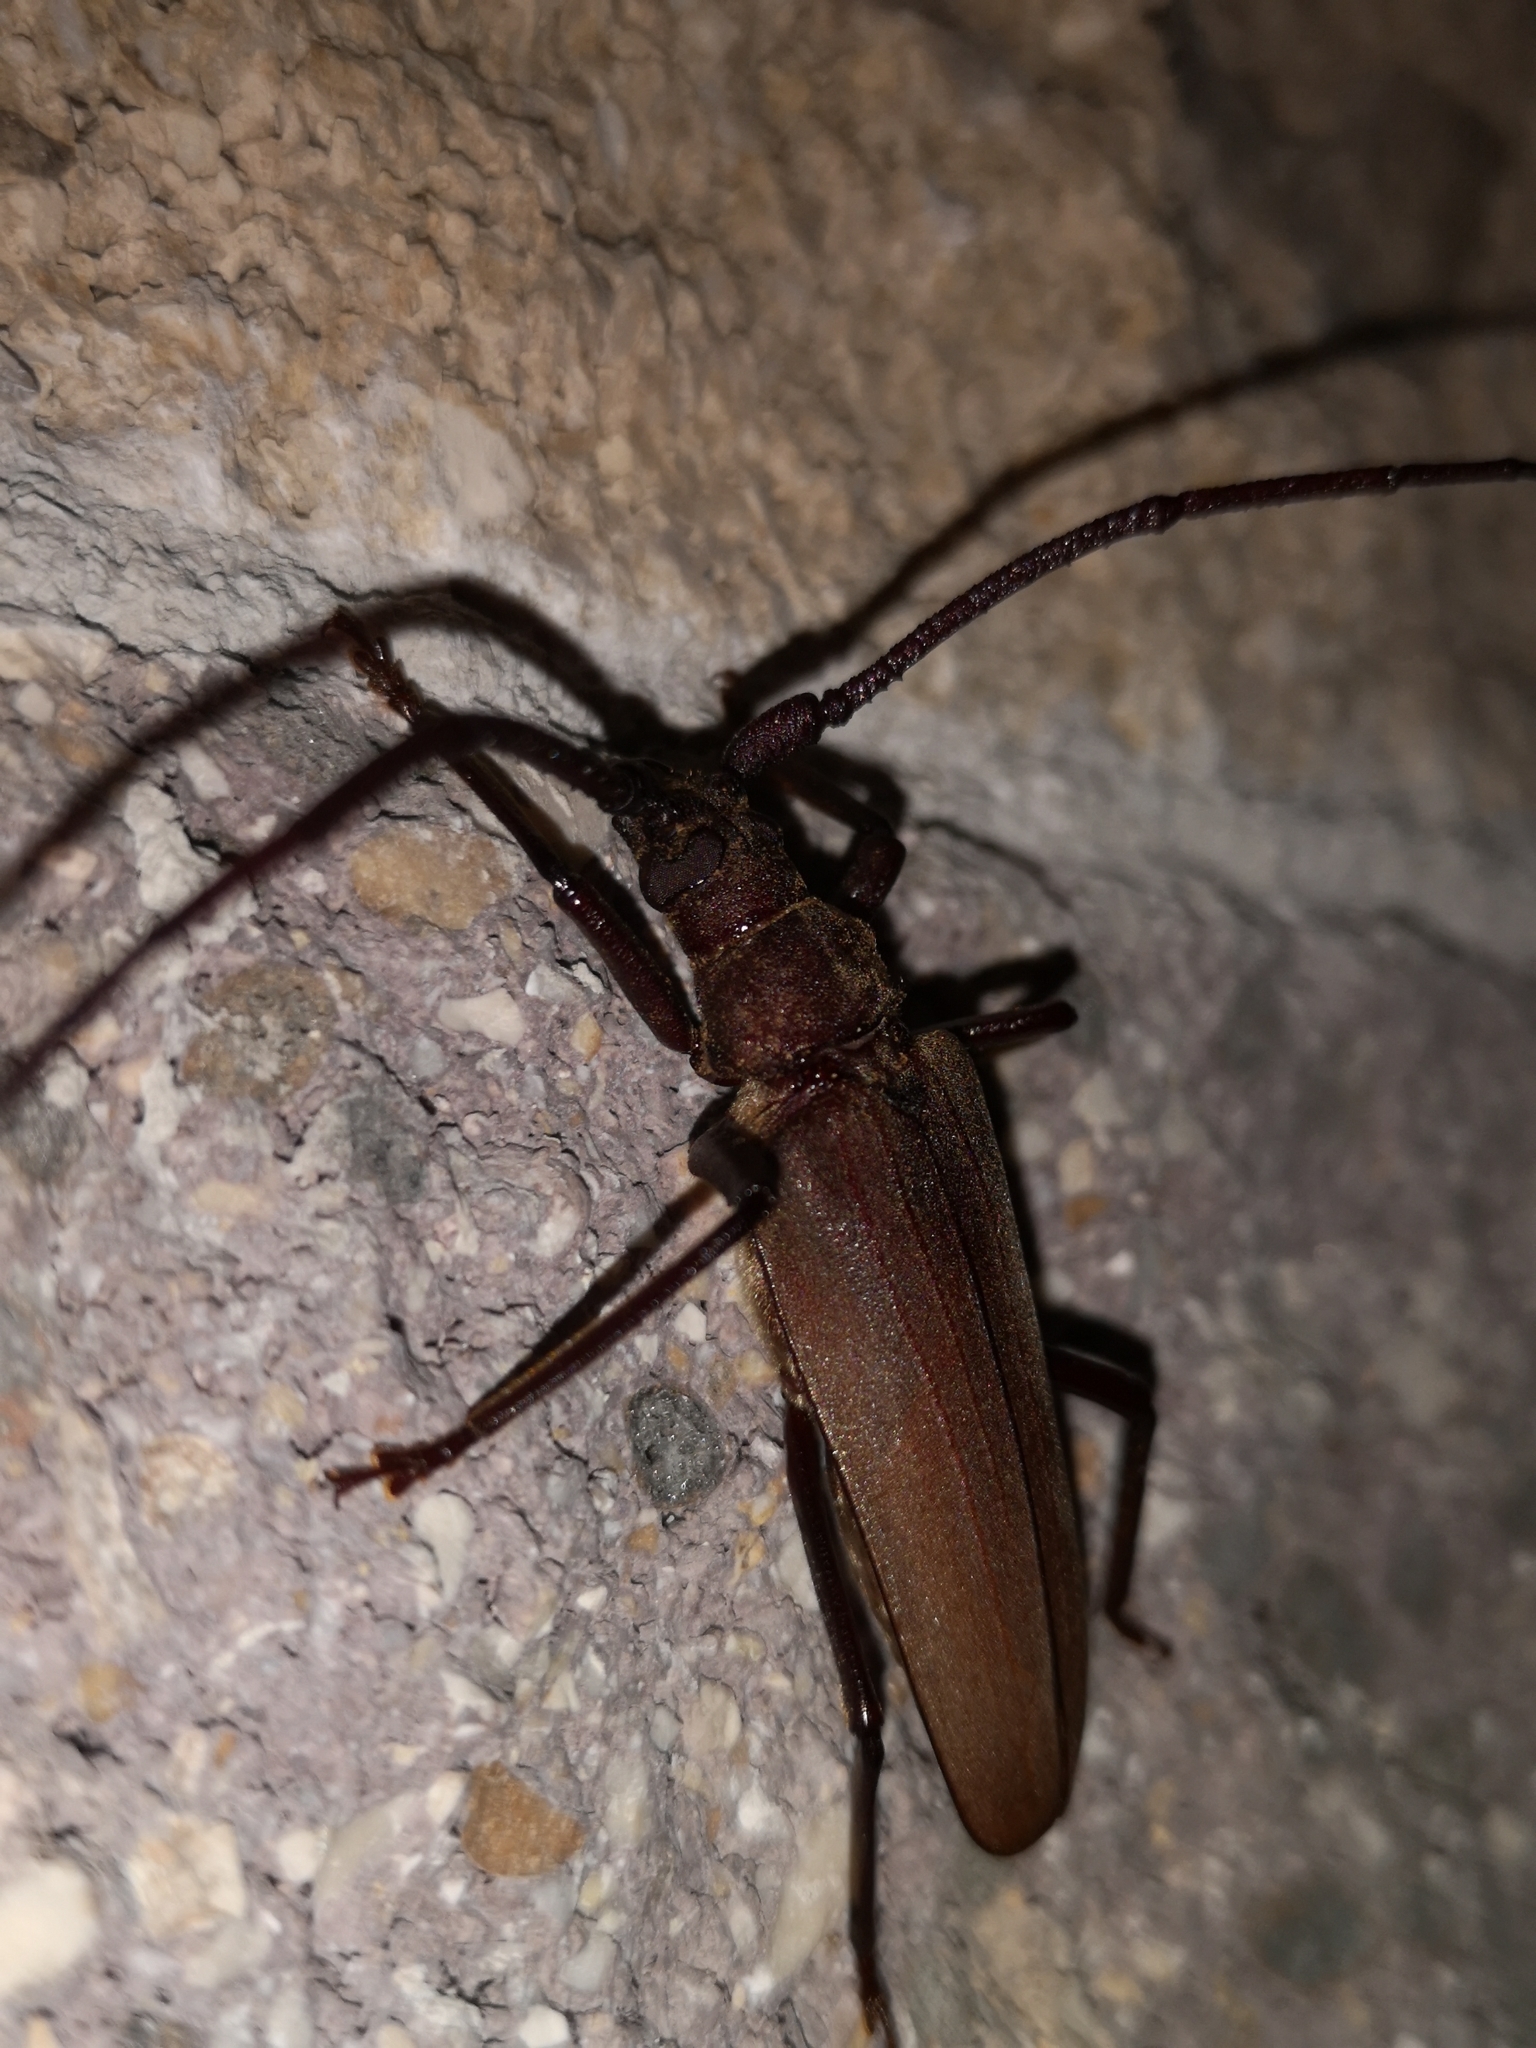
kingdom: Animalia
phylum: Arthropoda
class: Insecta
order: Coleoptera
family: Cerambycidae
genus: Aegosoma
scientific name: Aegosoma scabricorne
